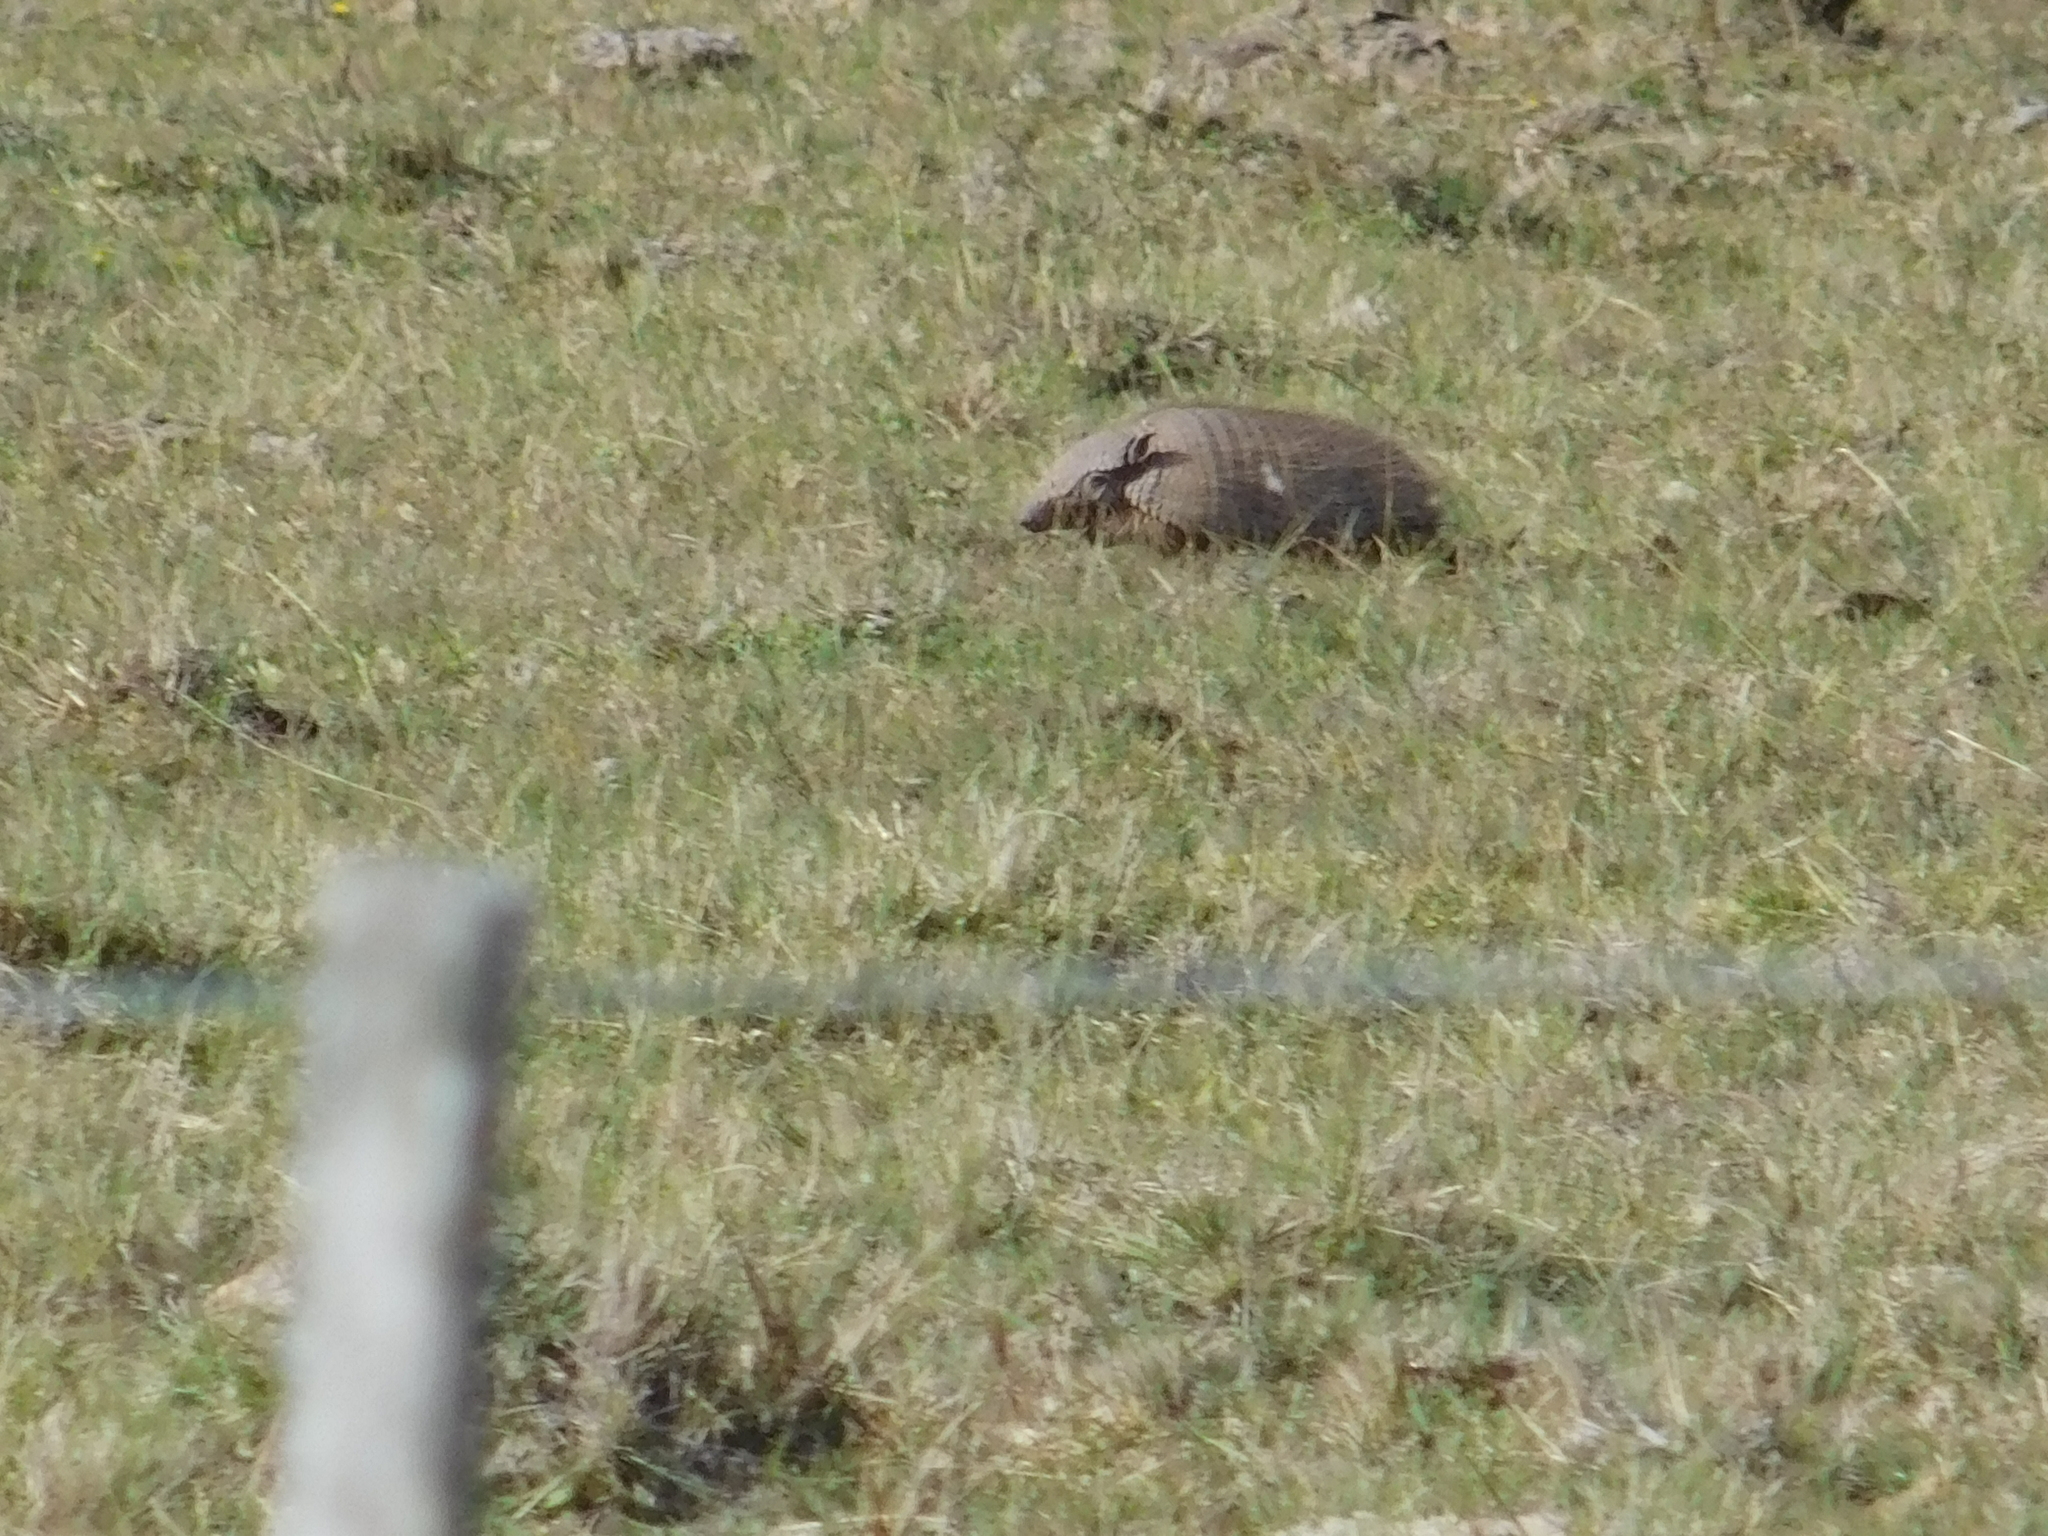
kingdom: Animalia
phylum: Chordata
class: Mammalia
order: Cingulata
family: Dasypodidae
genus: Chaetophractus
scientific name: Chaetophractus villosus
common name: Big hairy armadillo
